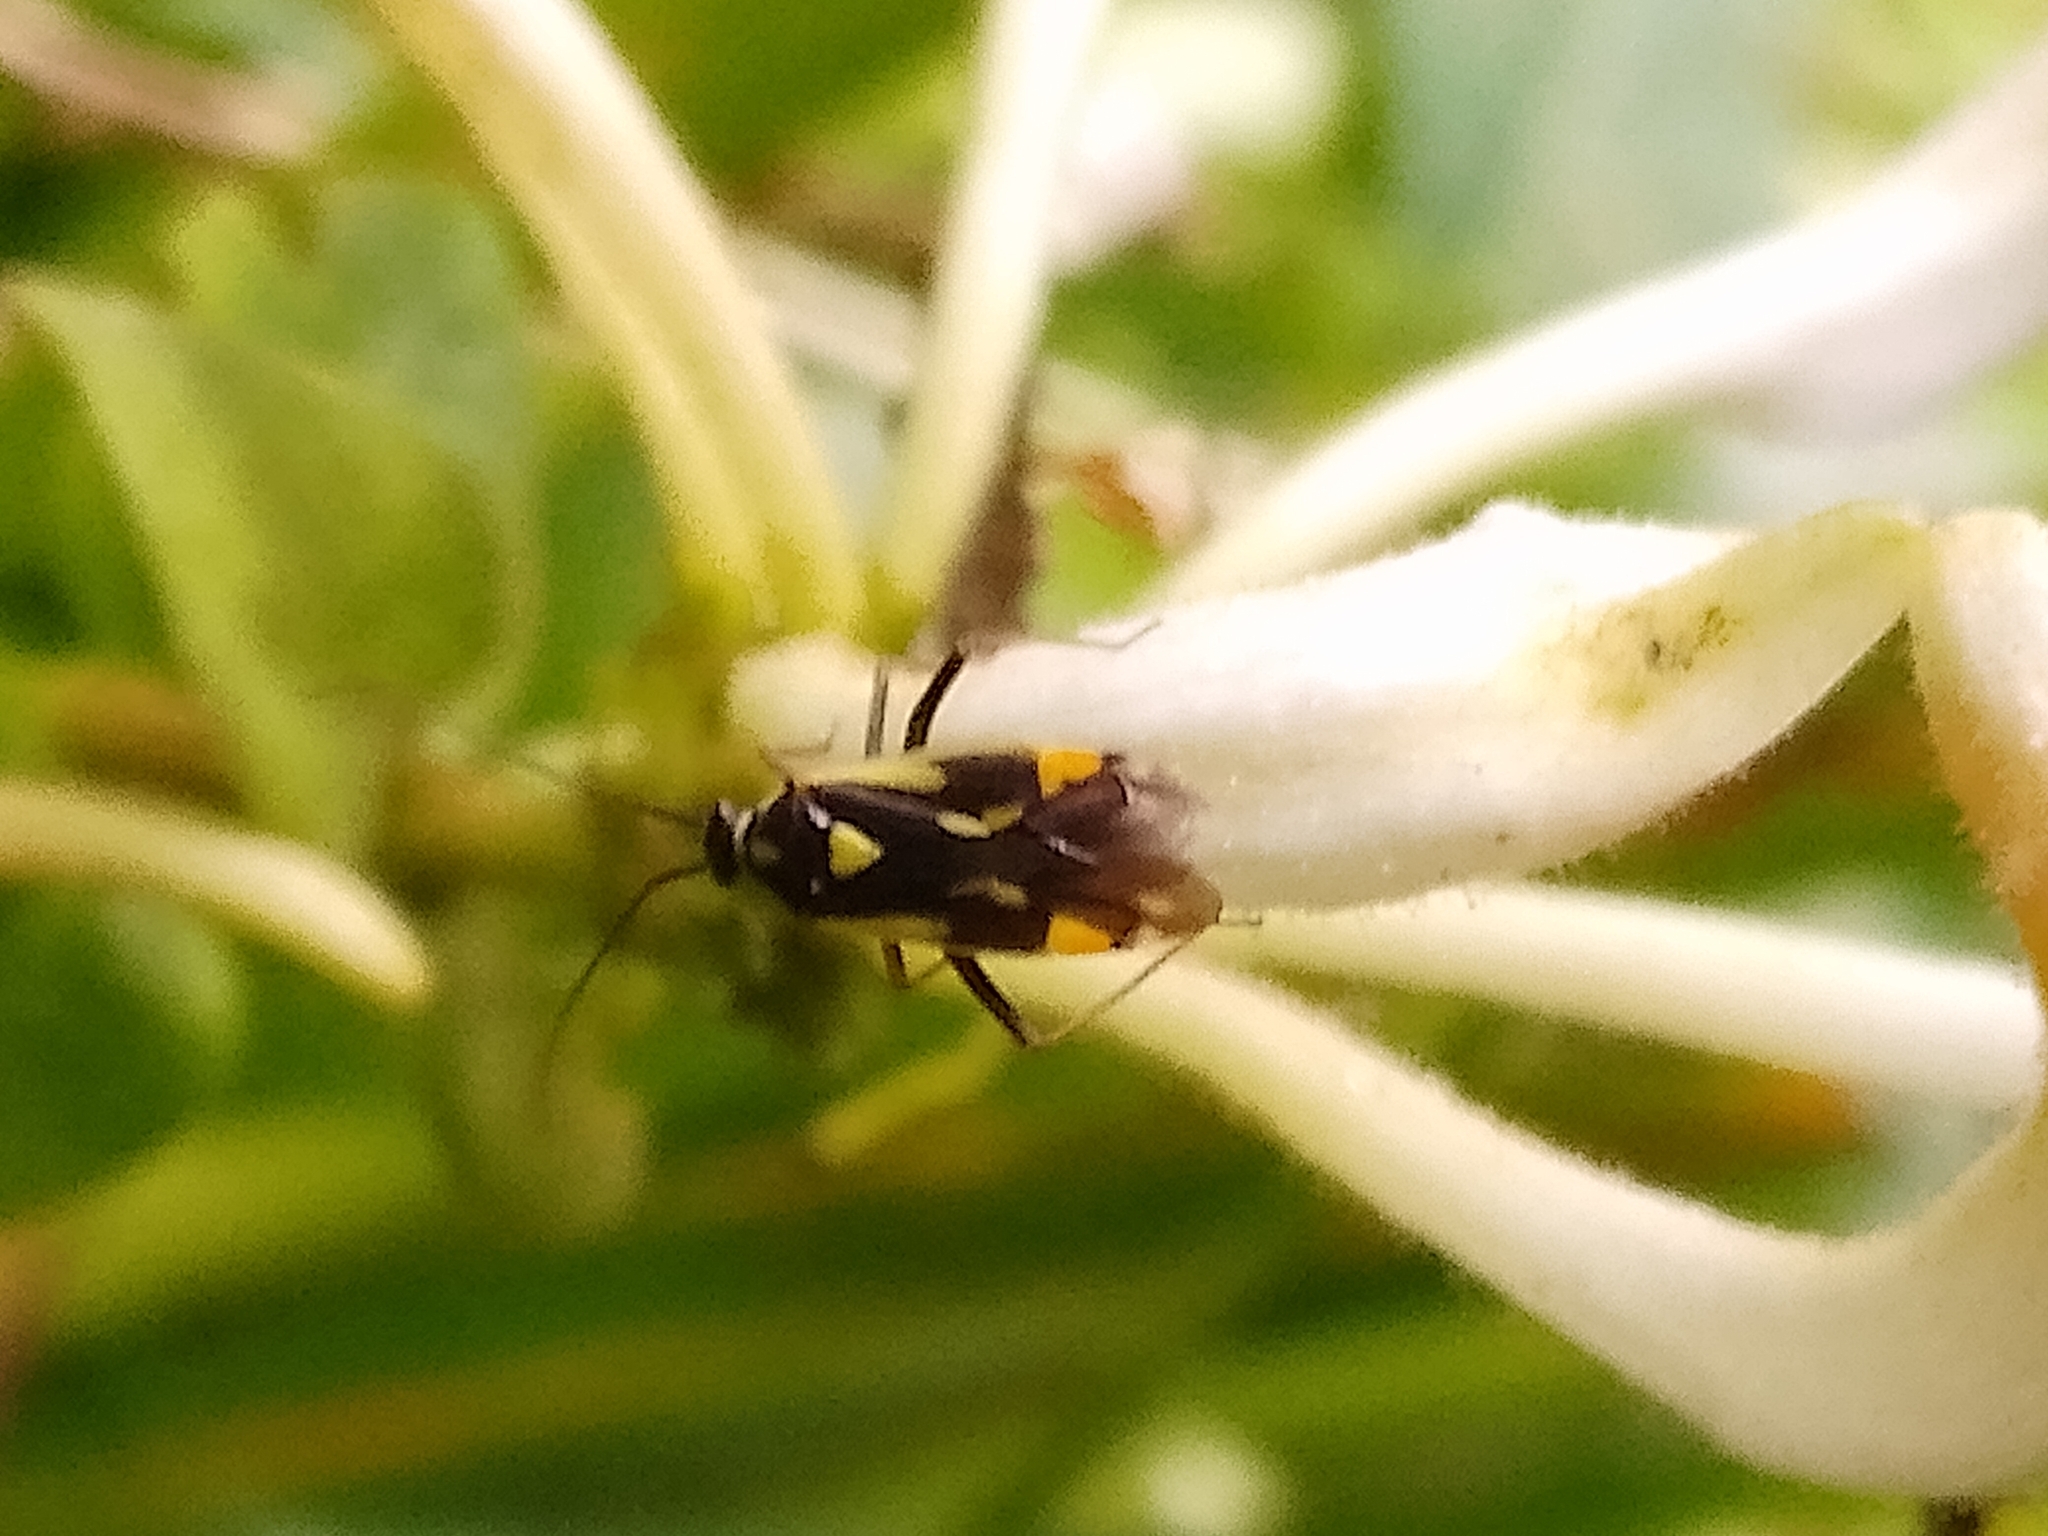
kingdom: Animalia
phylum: Arthropoda
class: Insecta
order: Hemiptera
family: Miridae
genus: Grypocoris
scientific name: Grypocoris stysi
